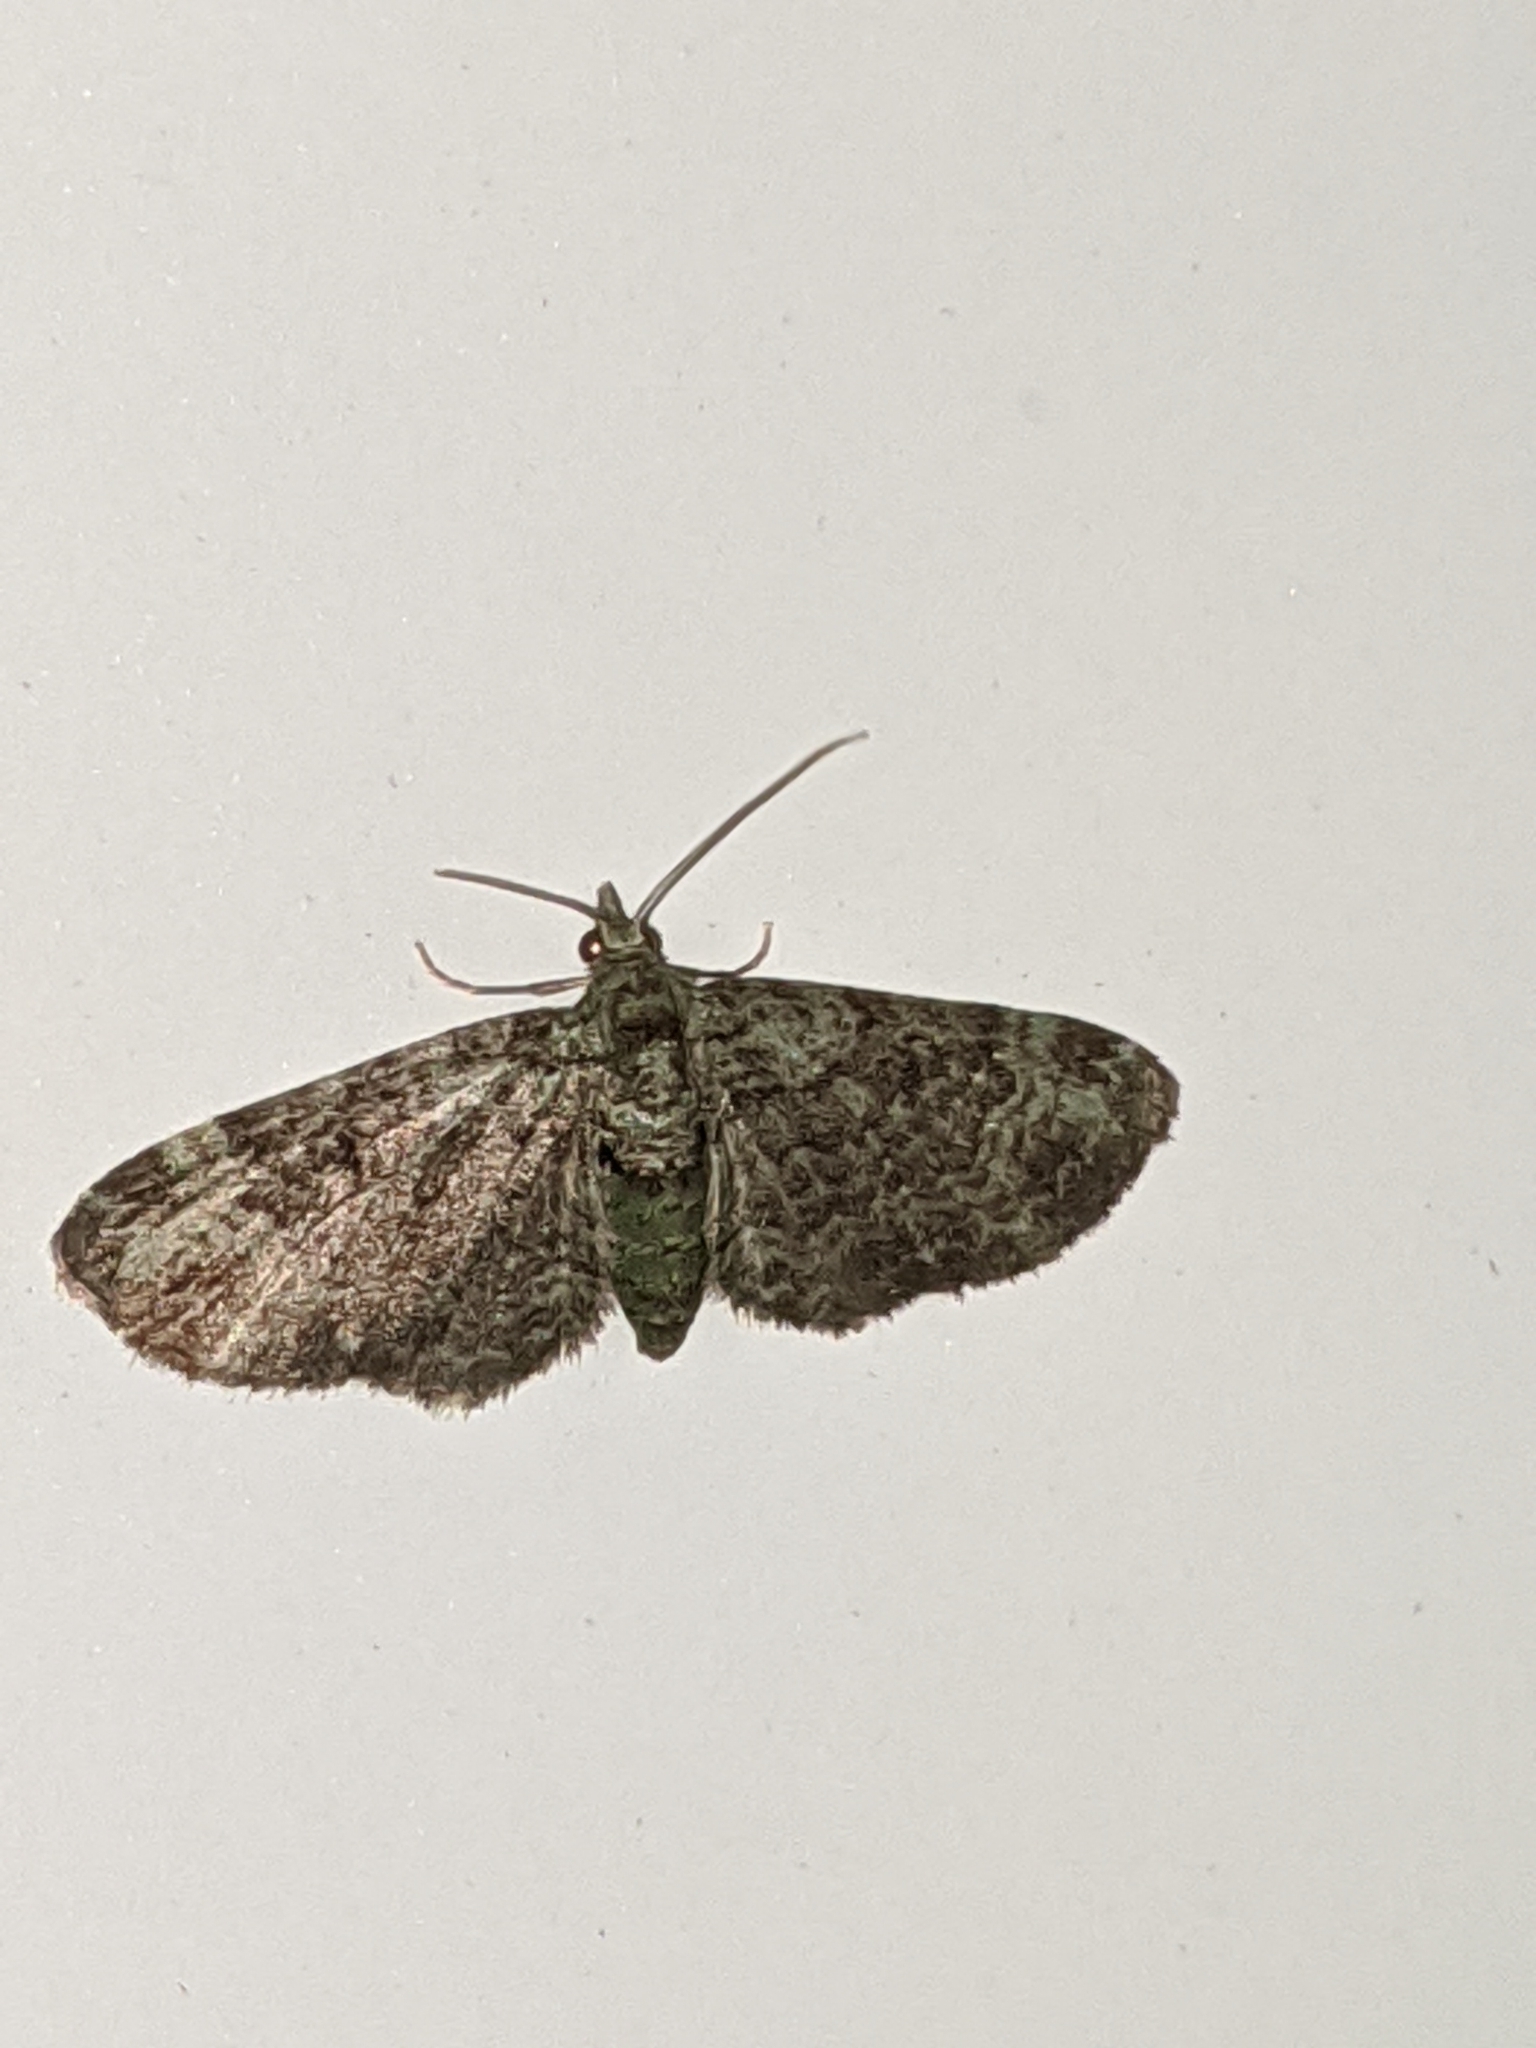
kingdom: Animalia
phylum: Arthropoda
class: Insecta
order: Lepidoptera
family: Geometridae
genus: Pasiphila
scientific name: Pasiphila rectangulata
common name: Green pug
